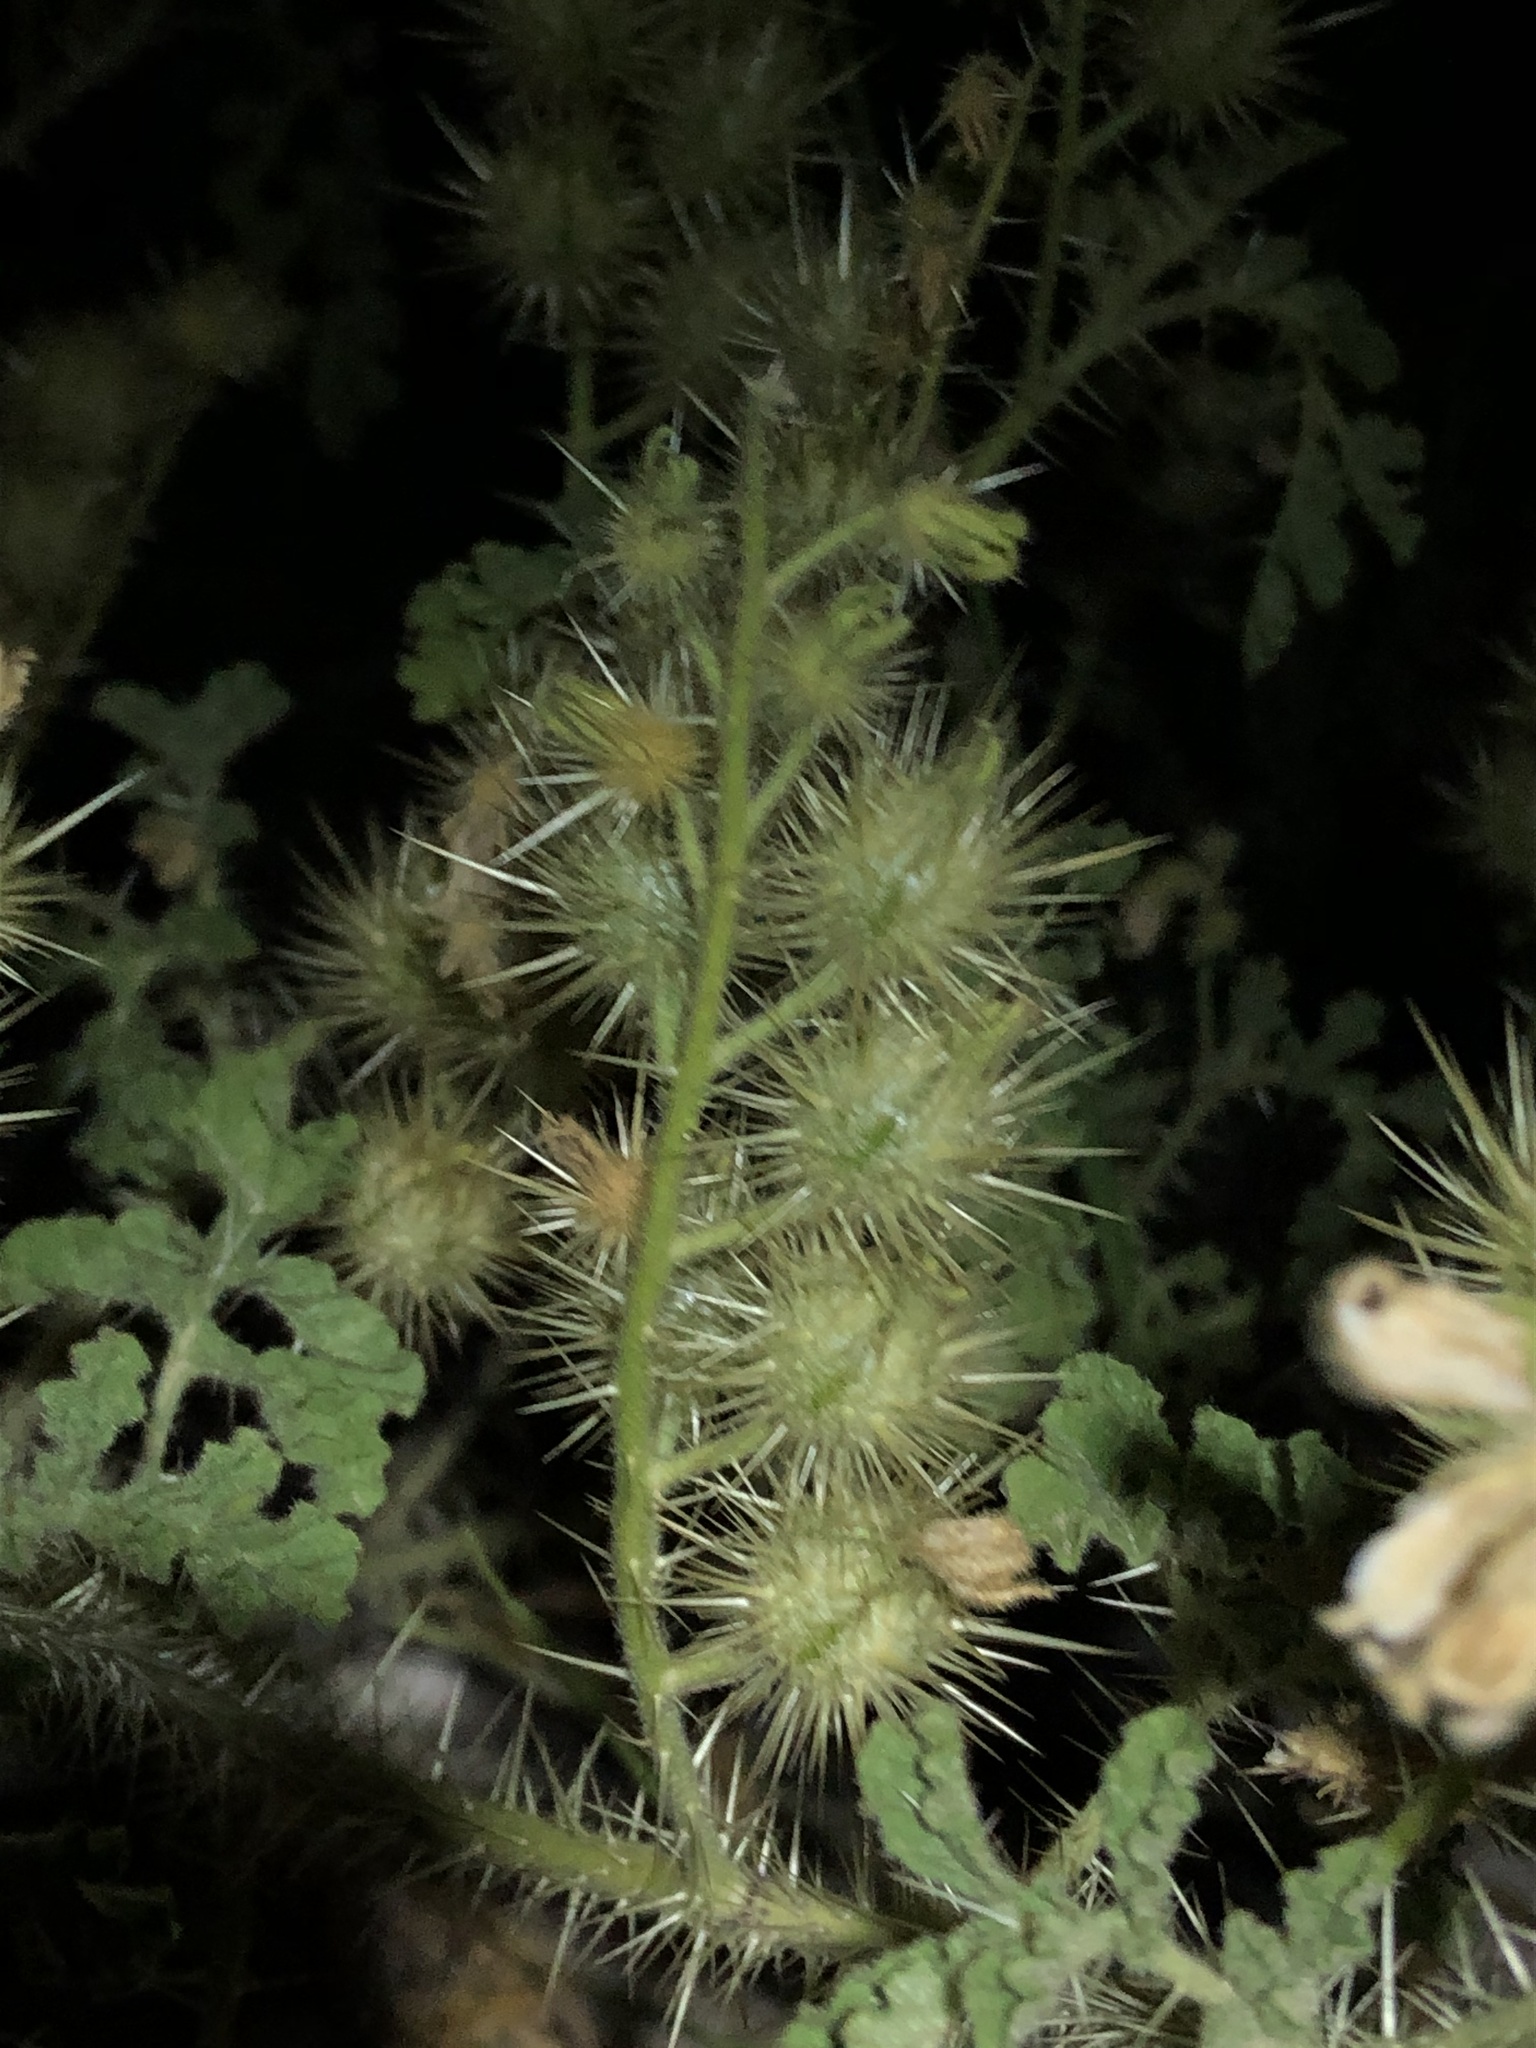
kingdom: Plantae
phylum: Tracheophyta
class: Magnoliopsida
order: Solanales
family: Solanaceae
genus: Solanum
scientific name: Solanum angustifolium
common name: Buffalobur nightshade
